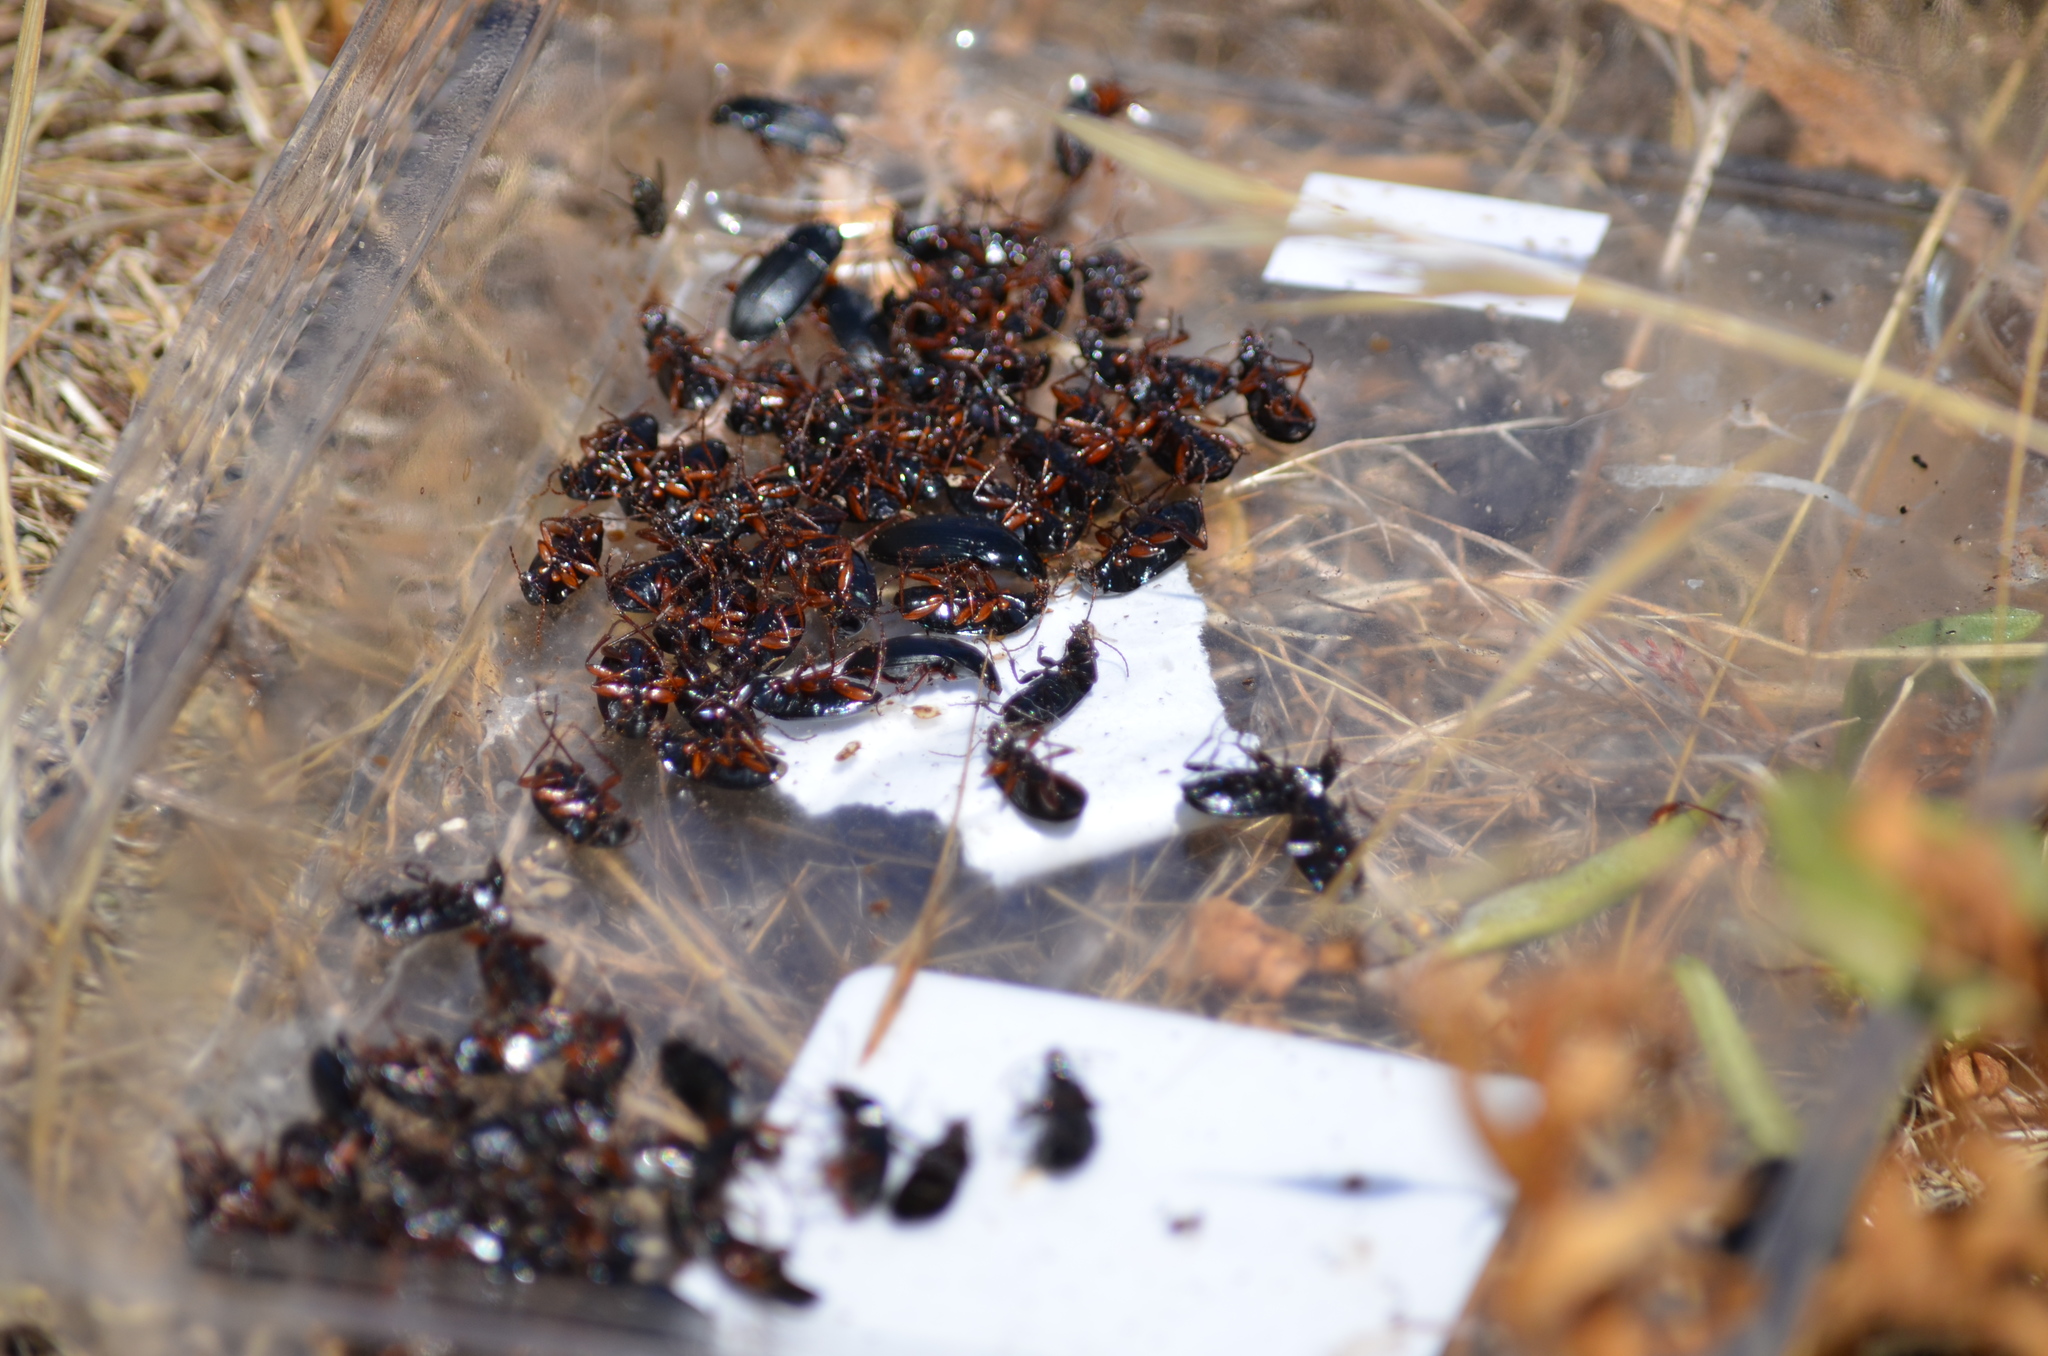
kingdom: Animalia
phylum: Arthropoda
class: Insecta
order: Coleoptera
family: Carabidae
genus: Calathus
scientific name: Calathus fuscipes
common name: Dark-footed harp ground beetle
